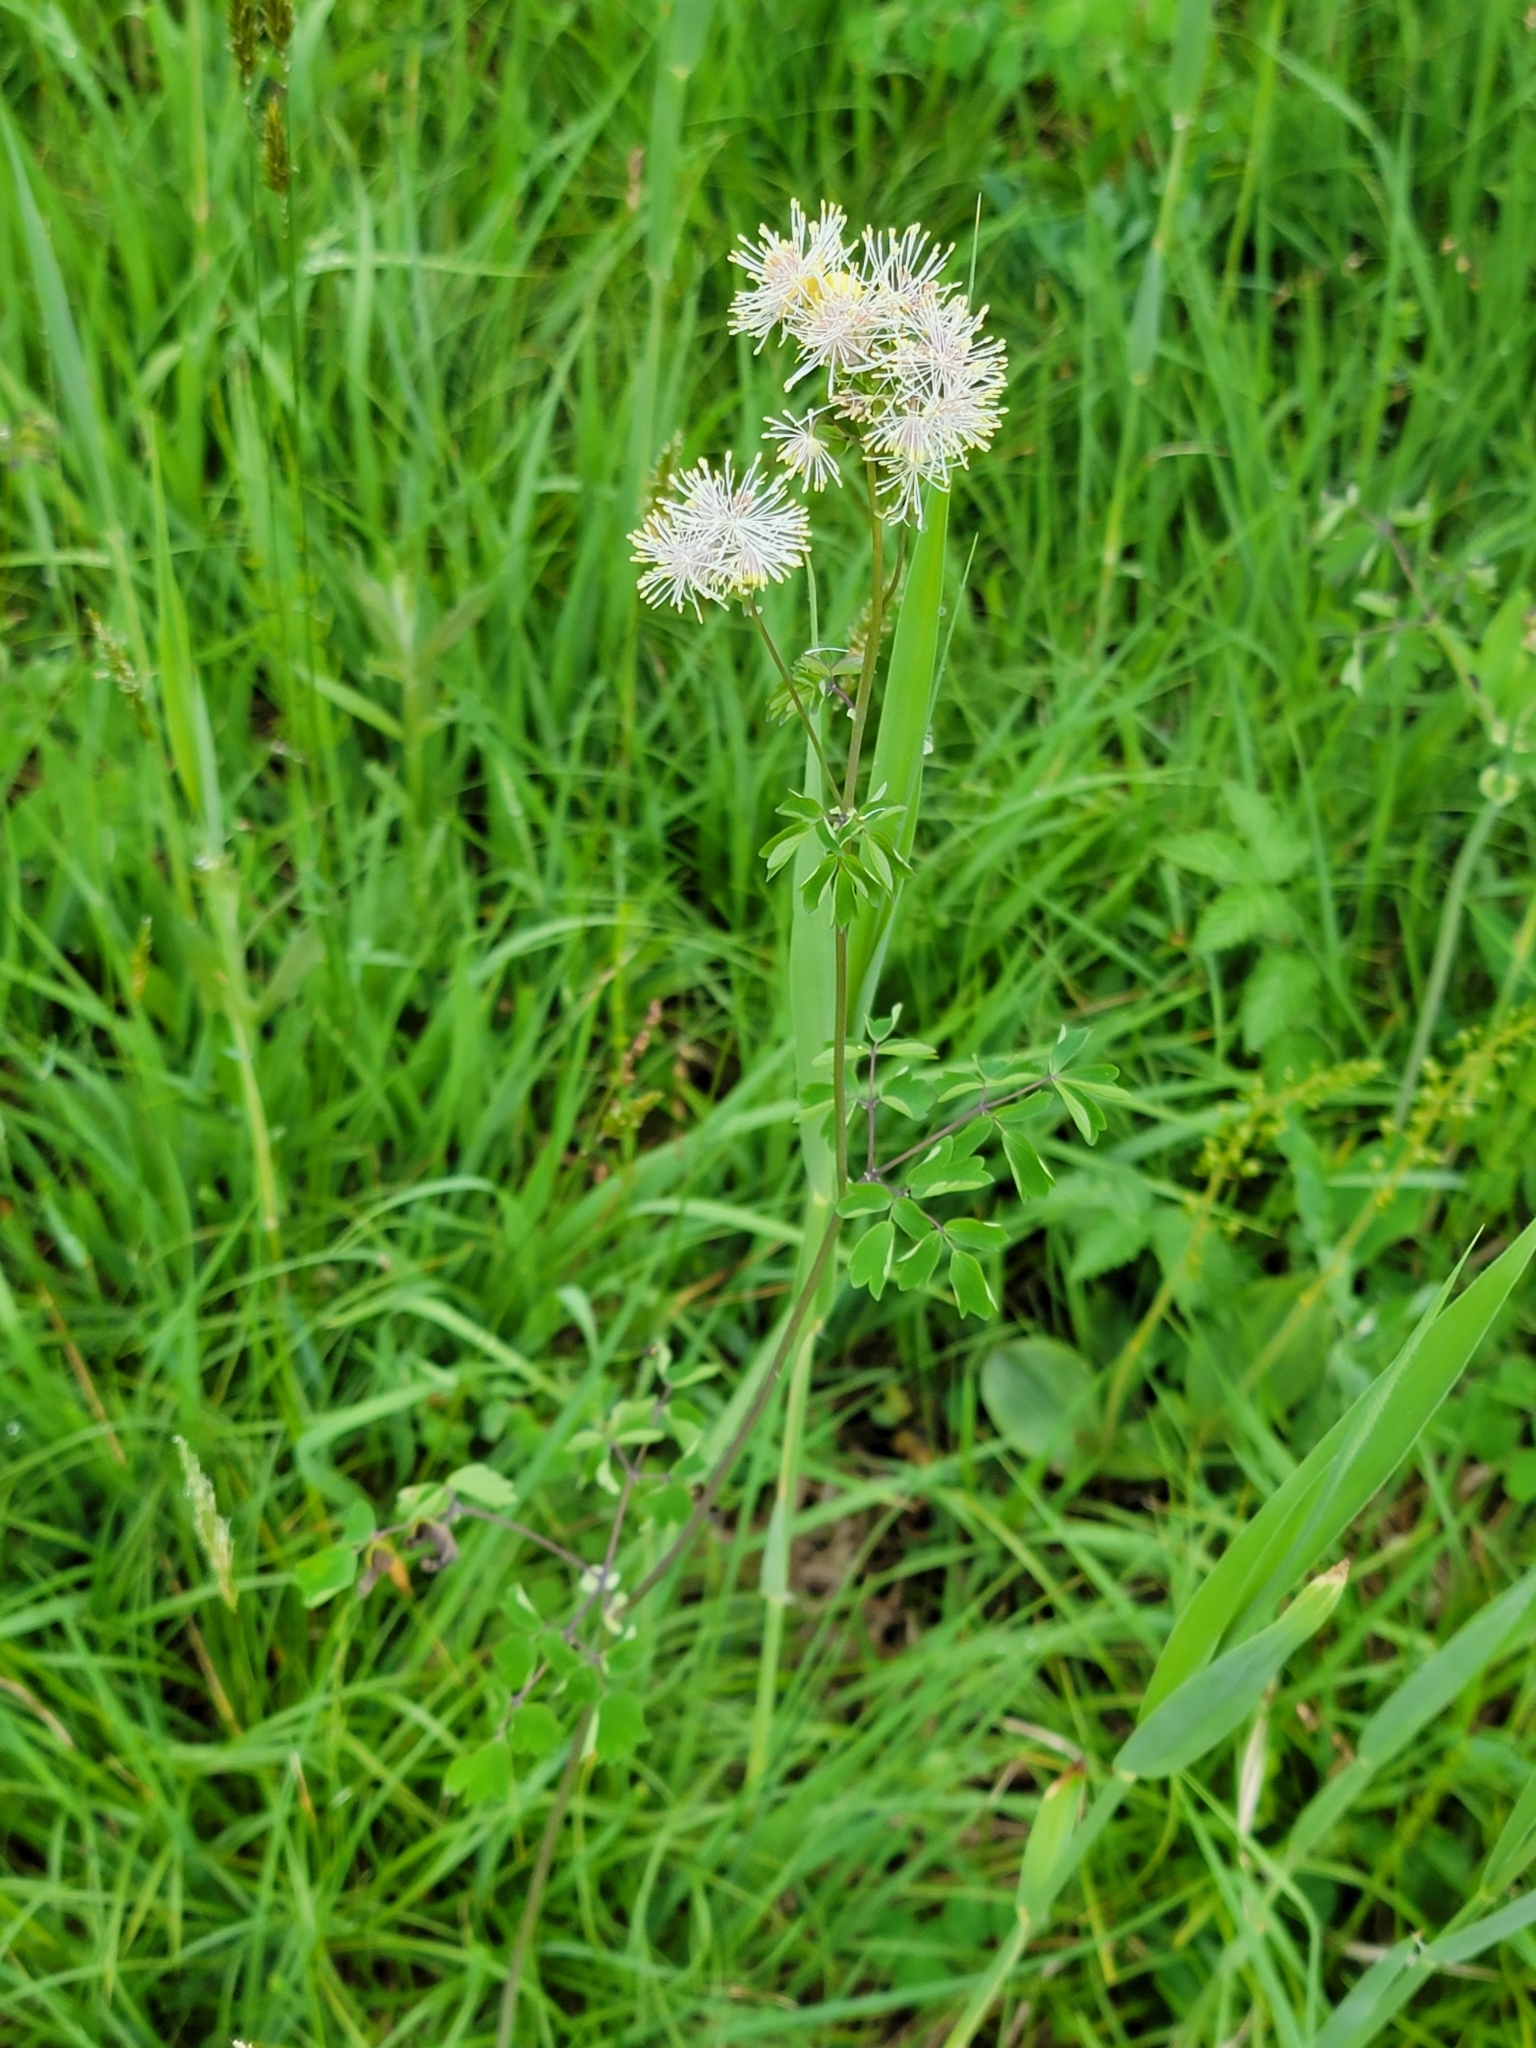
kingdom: Plantae
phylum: Tracheophyta
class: Magnoliopsida
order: Ranunculales
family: Ranunculaceae
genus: Thalictrum
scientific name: Thalictrum aquilegiifolium
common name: French meadow-rue
